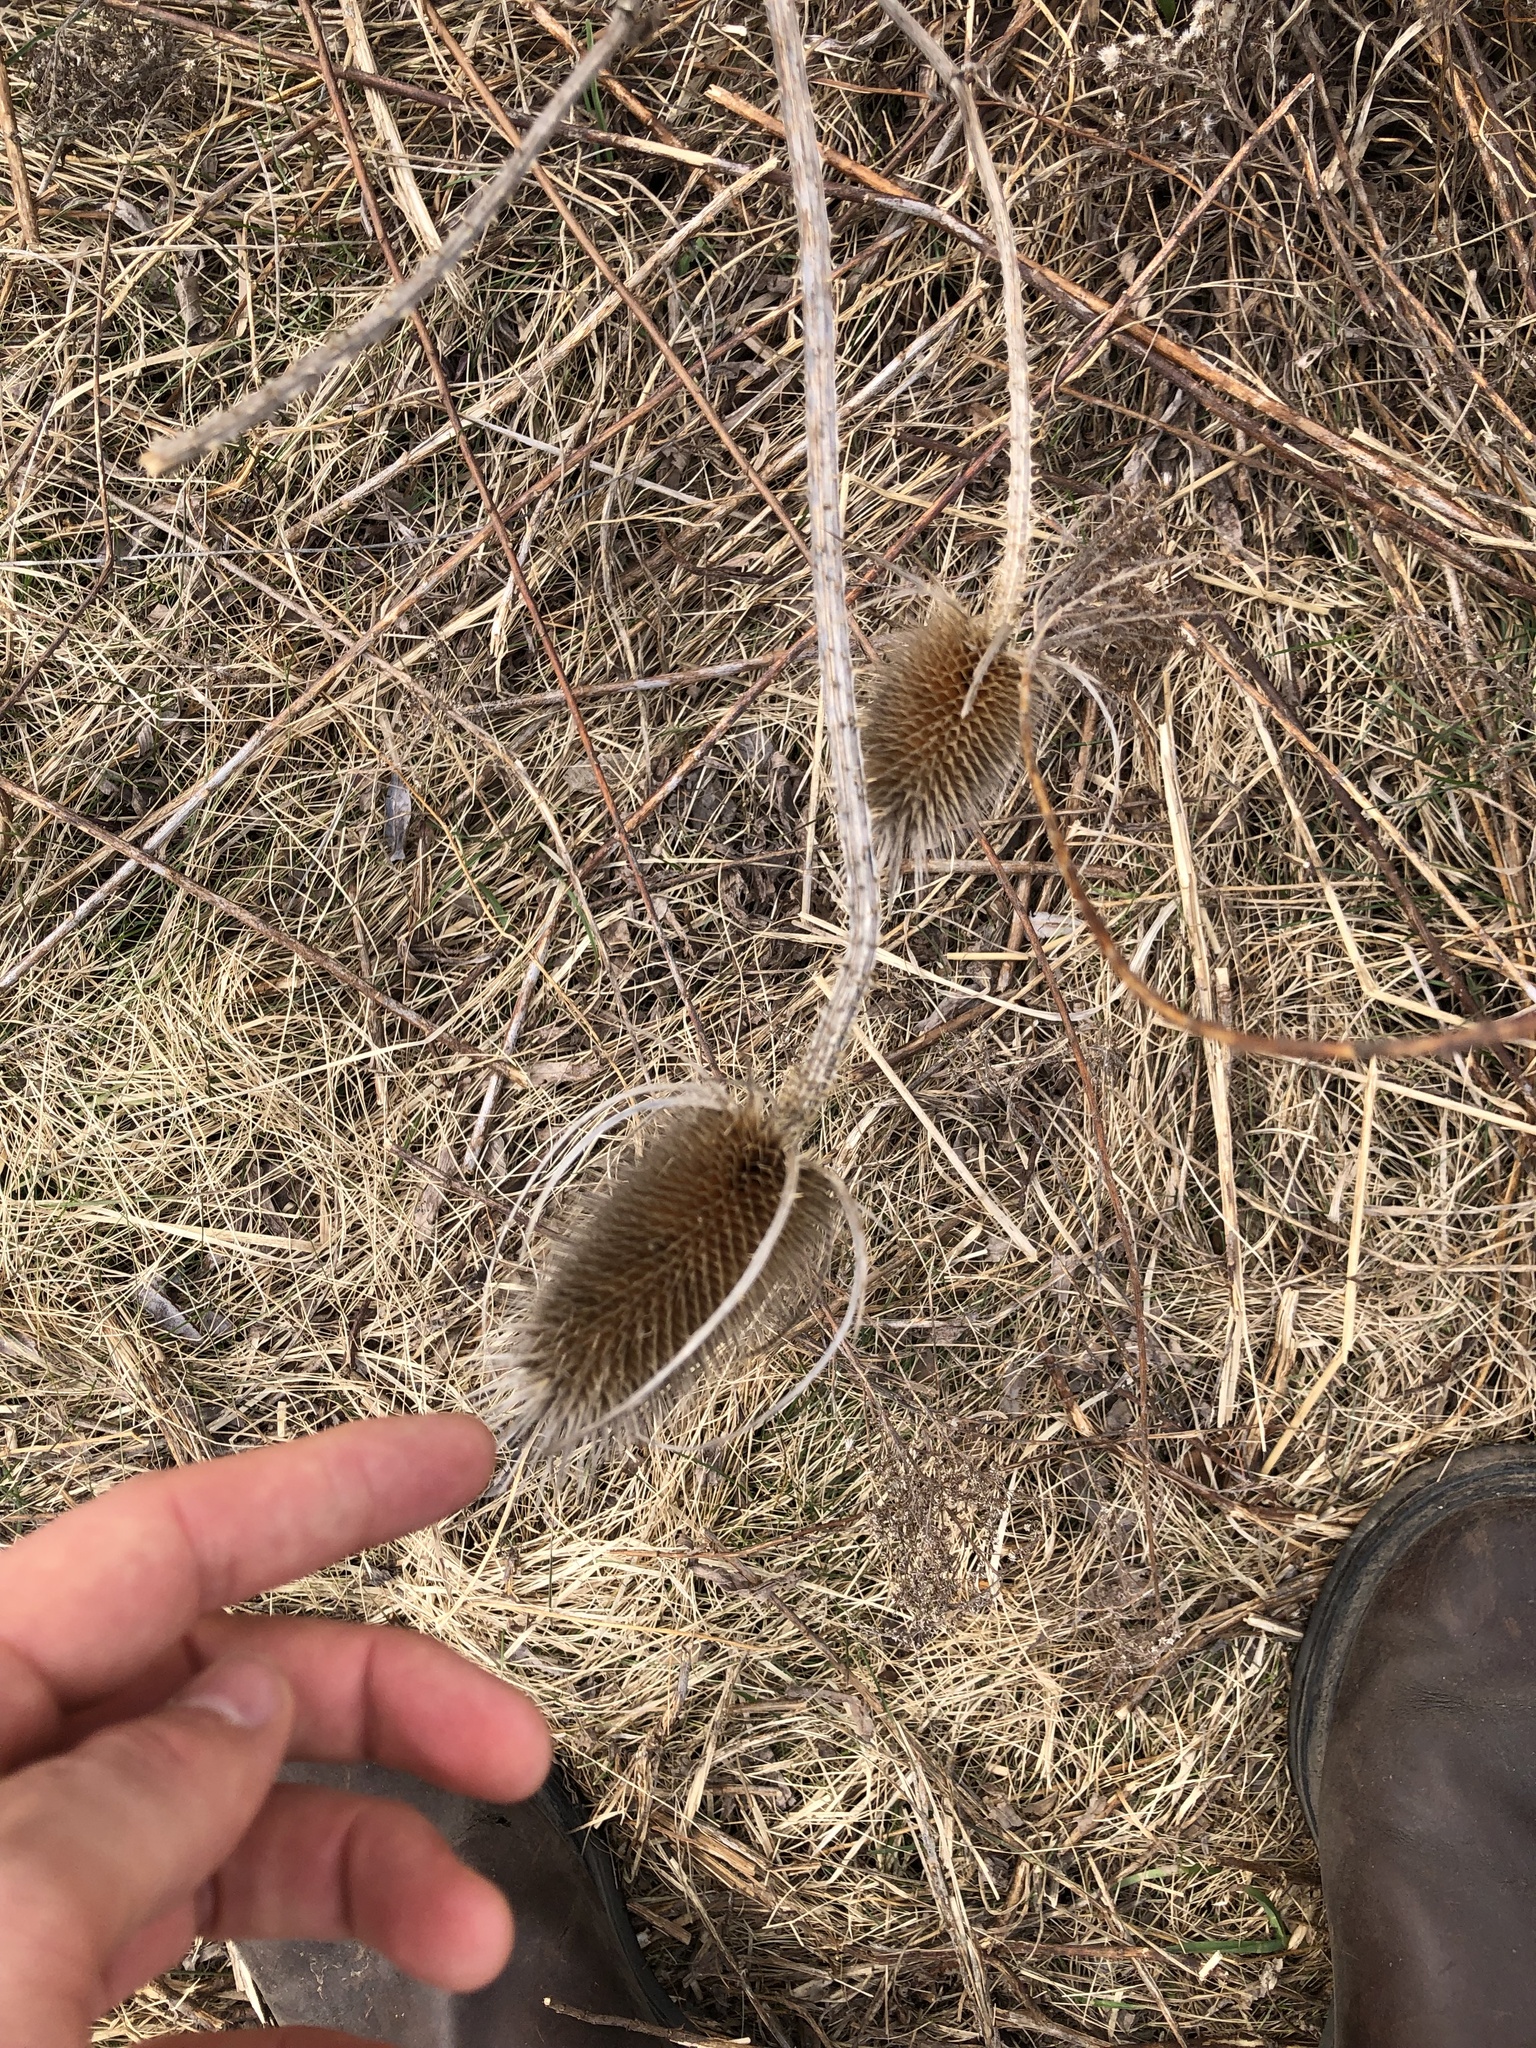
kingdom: Plantae
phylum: Tracheophyta
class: Magnoliopsida
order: Dipsacales
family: Caprifoliaceae
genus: Dipsacus
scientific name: Dipsacus fullonum
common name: Teasel
